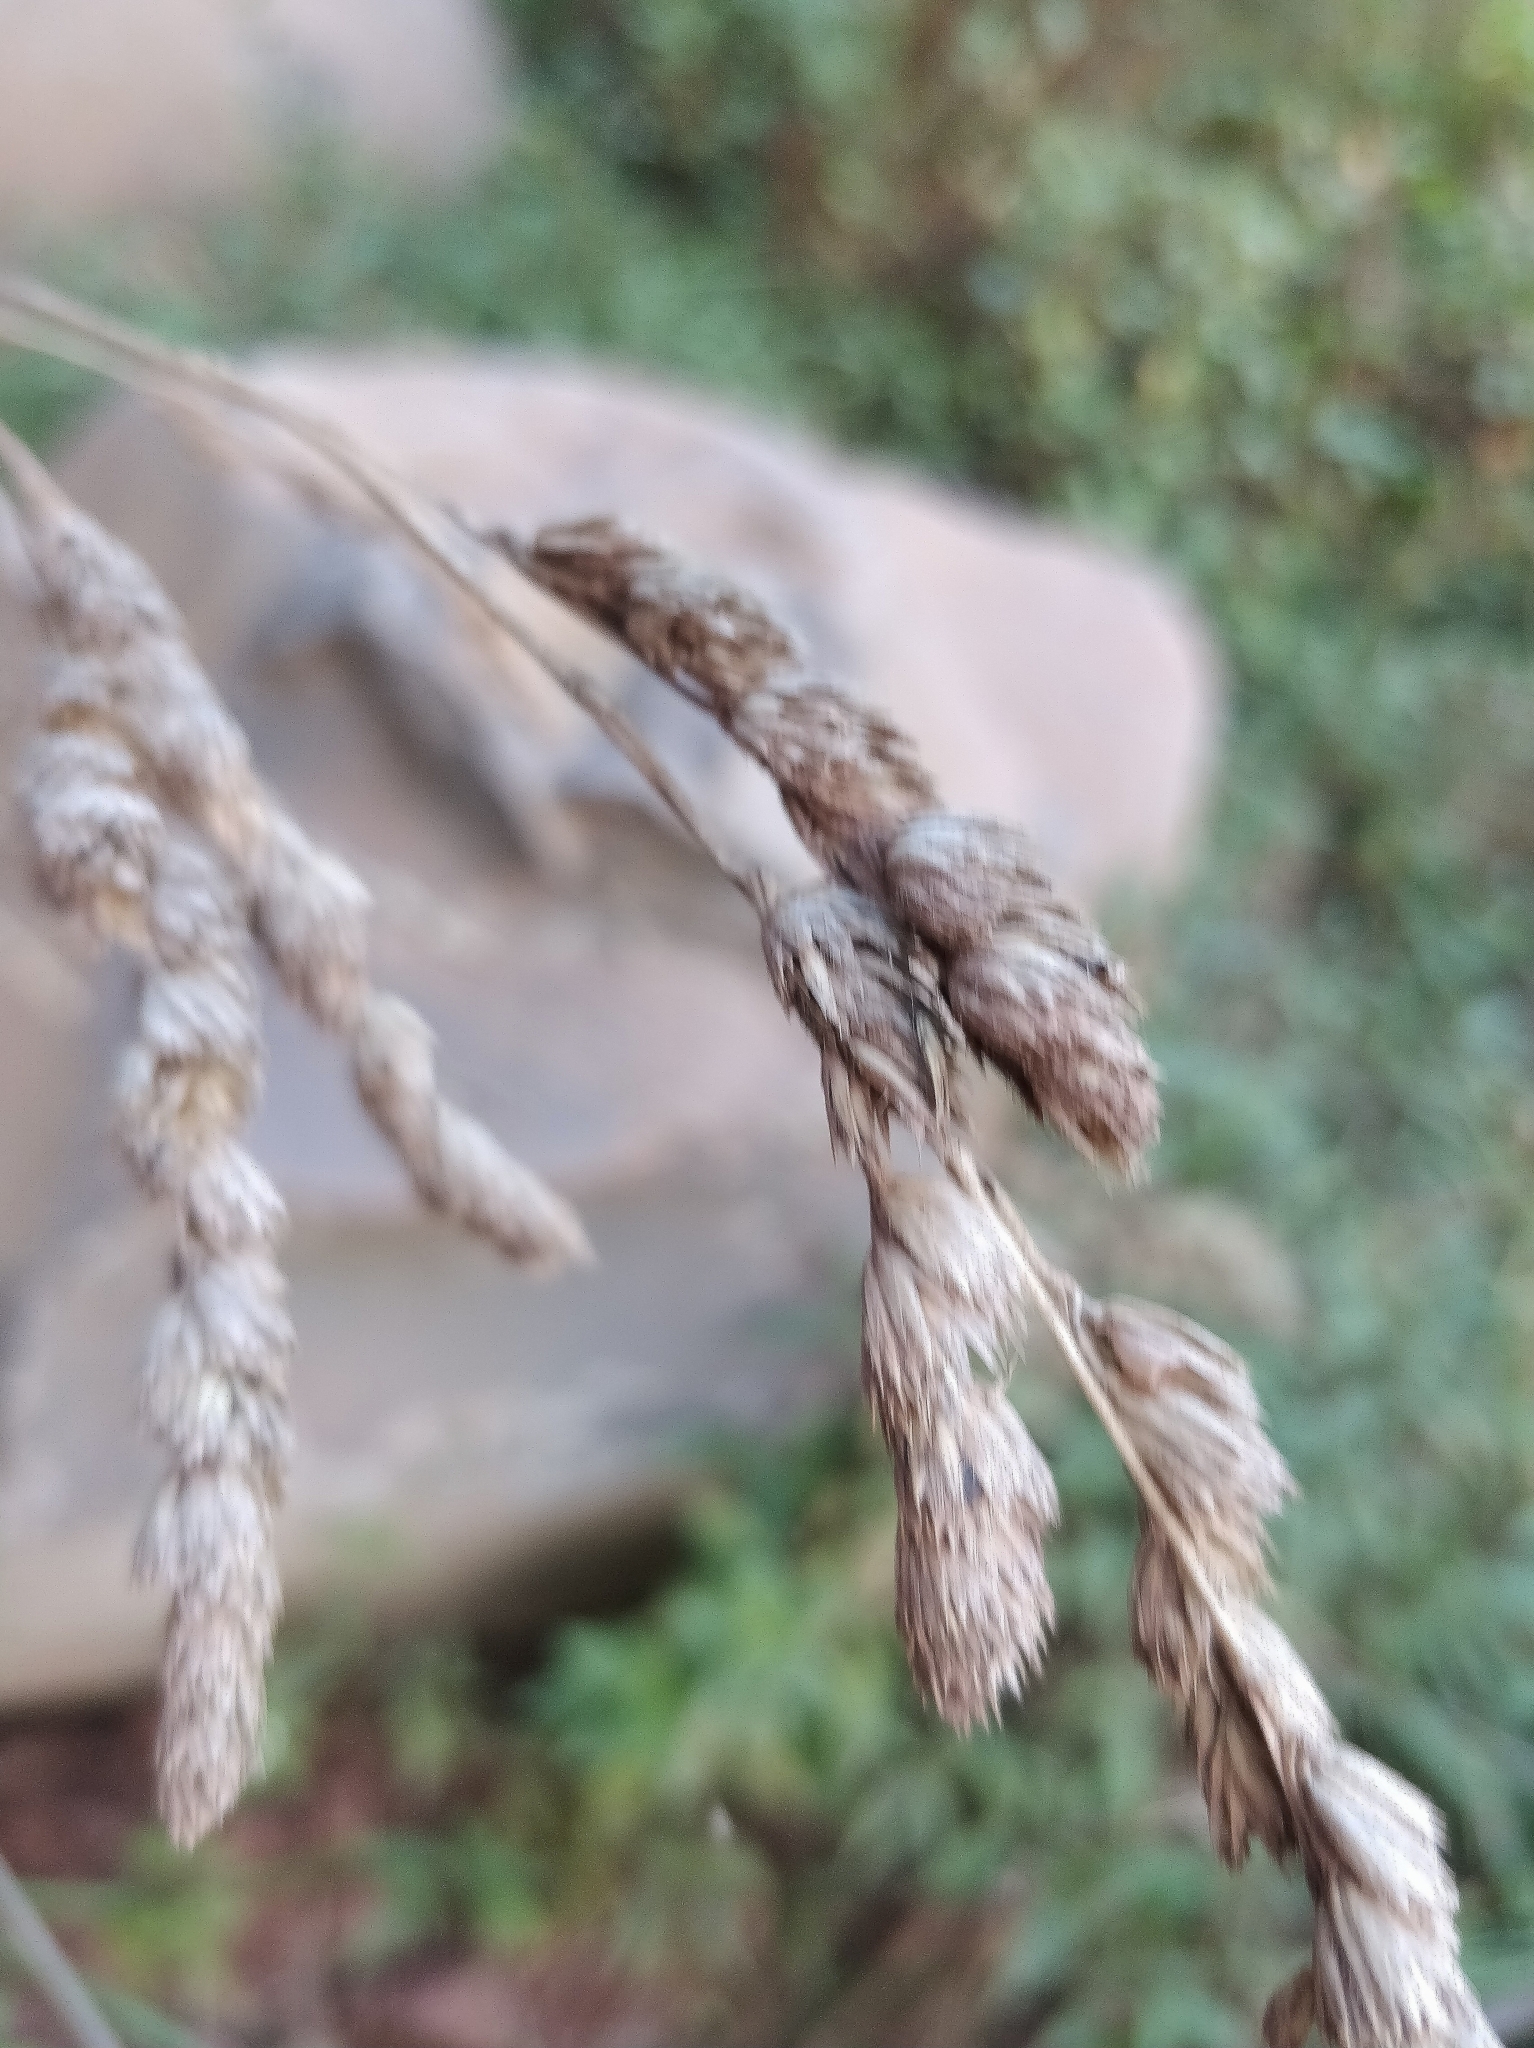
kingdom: Plantae
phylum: Tracheophyta
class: Liliopsida
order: Poales
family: Poaceae
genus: Dactylis
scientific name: Dactylis glomerata
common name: Orchardgrass
